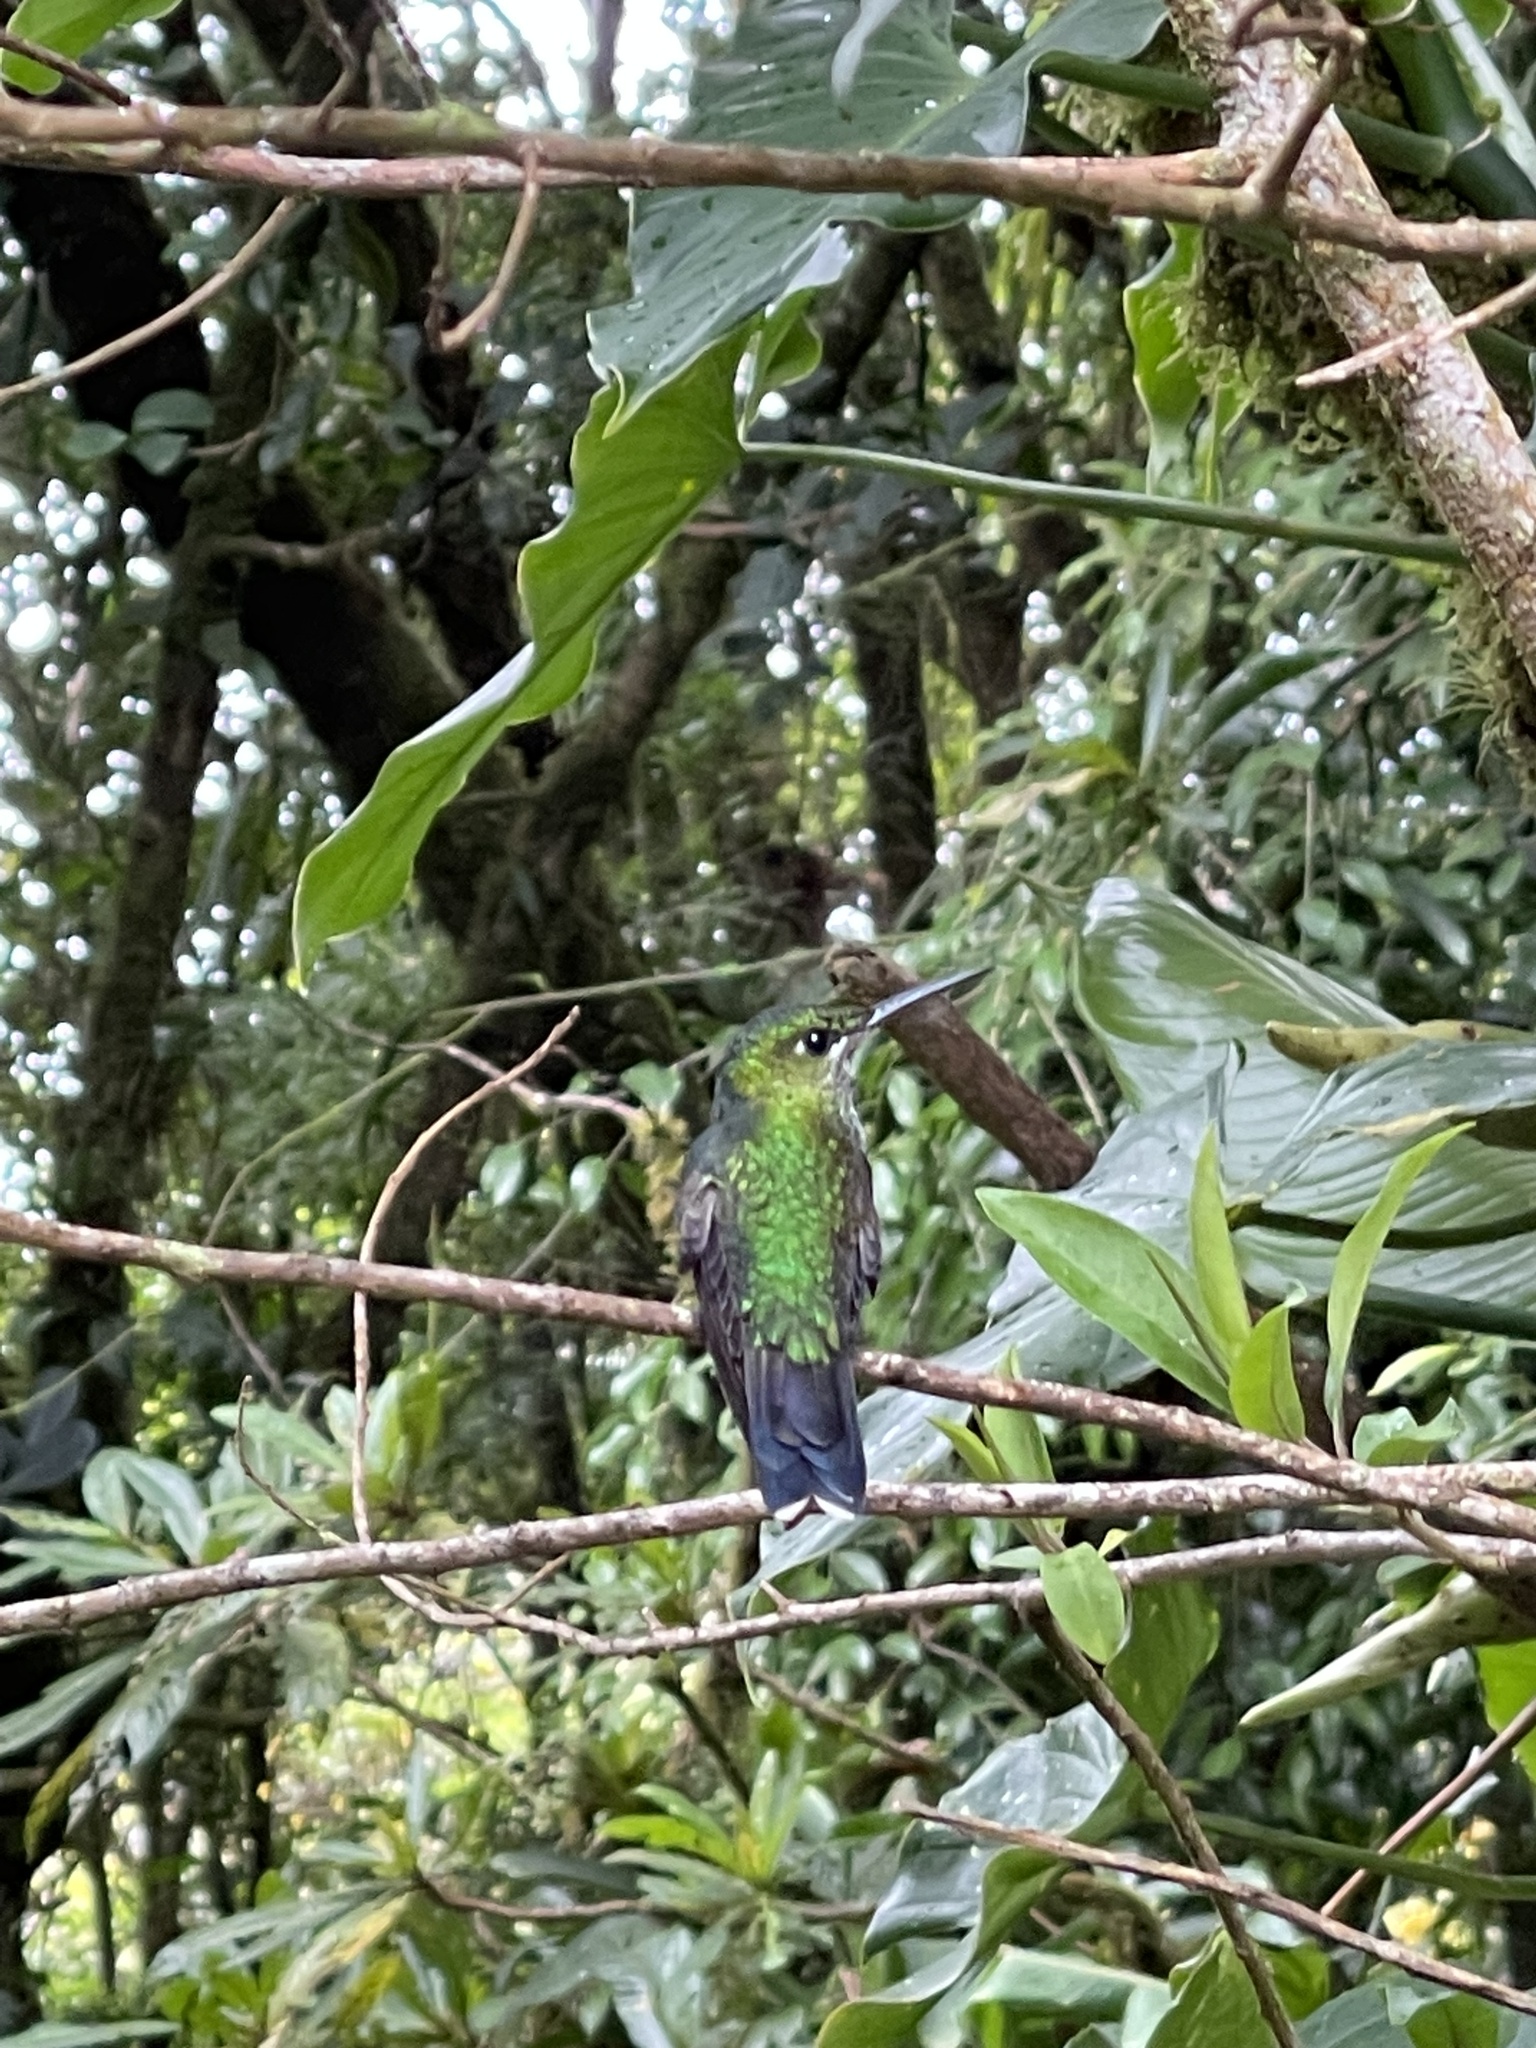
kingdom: Animalia
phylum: Chordata
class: Aves
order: Apodiformes
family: Trochilidae
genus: Heliodoxa
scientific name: Heliodoxa jacula
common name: Green-crowned brilliant
